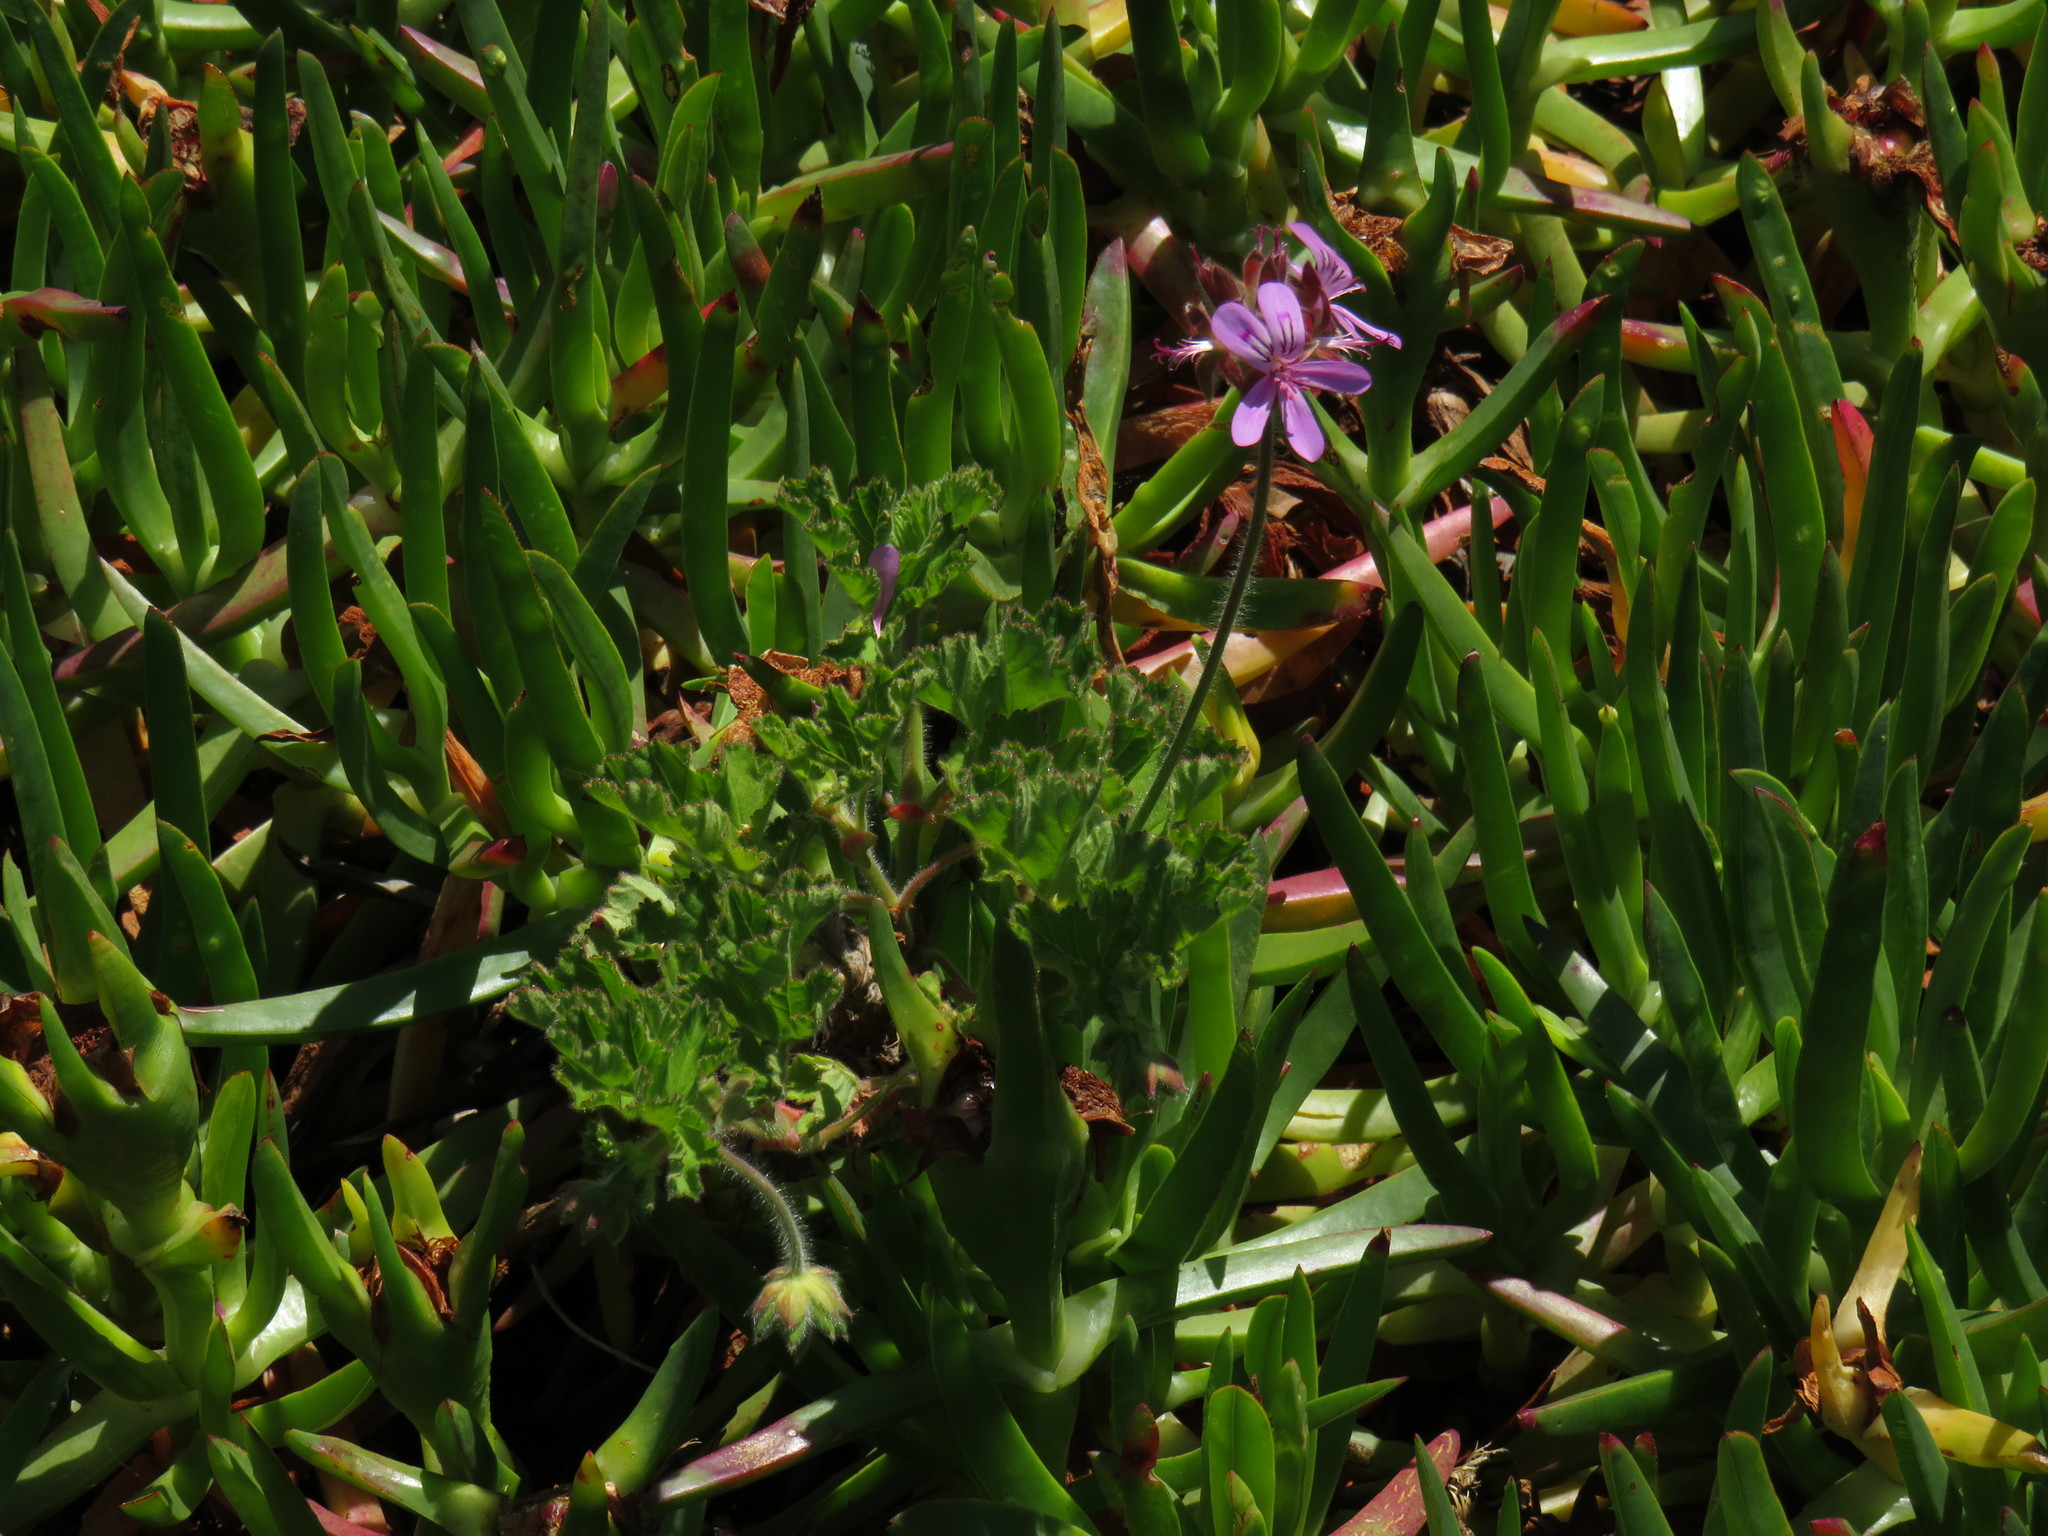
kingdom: Plantae
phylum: Tracheophyta
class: Magnoliopsida
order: Geraniales
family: Geraniaceae
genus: Pelargonium
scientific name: Pelargonium capitatum
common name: Rose scented geranium
